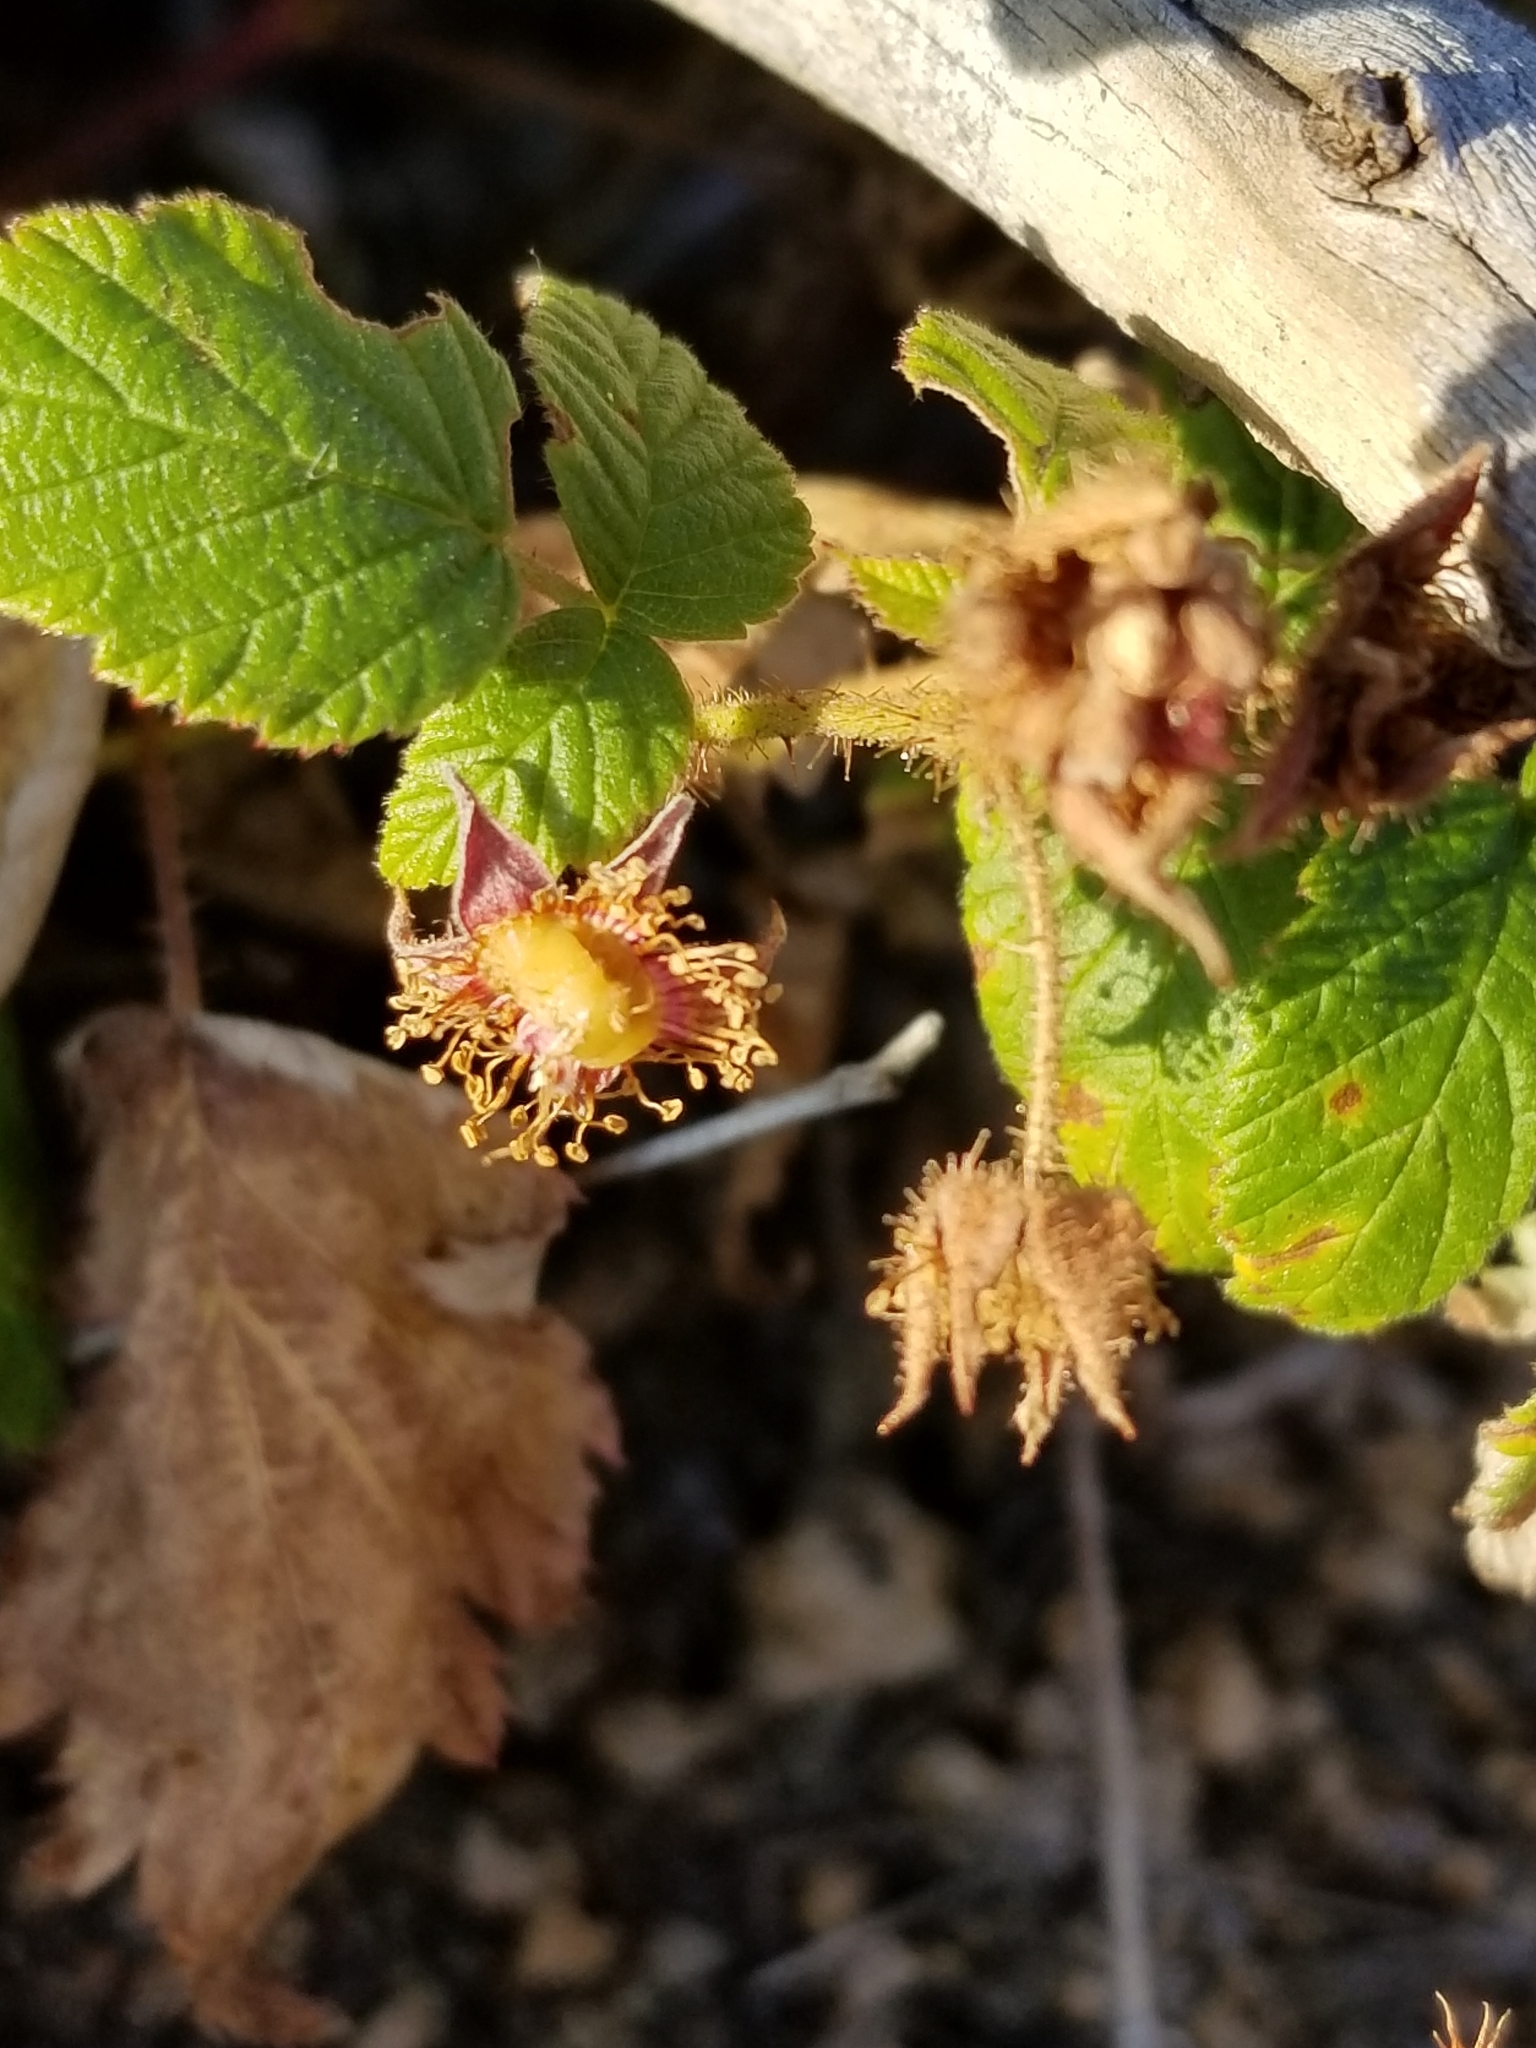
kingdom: Plantae
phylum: Tracheophyta
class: Magnoliopsida
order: Rosales
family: Rosaceae
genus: Rubus
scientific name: Rubus idaeus
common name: Raspberry
